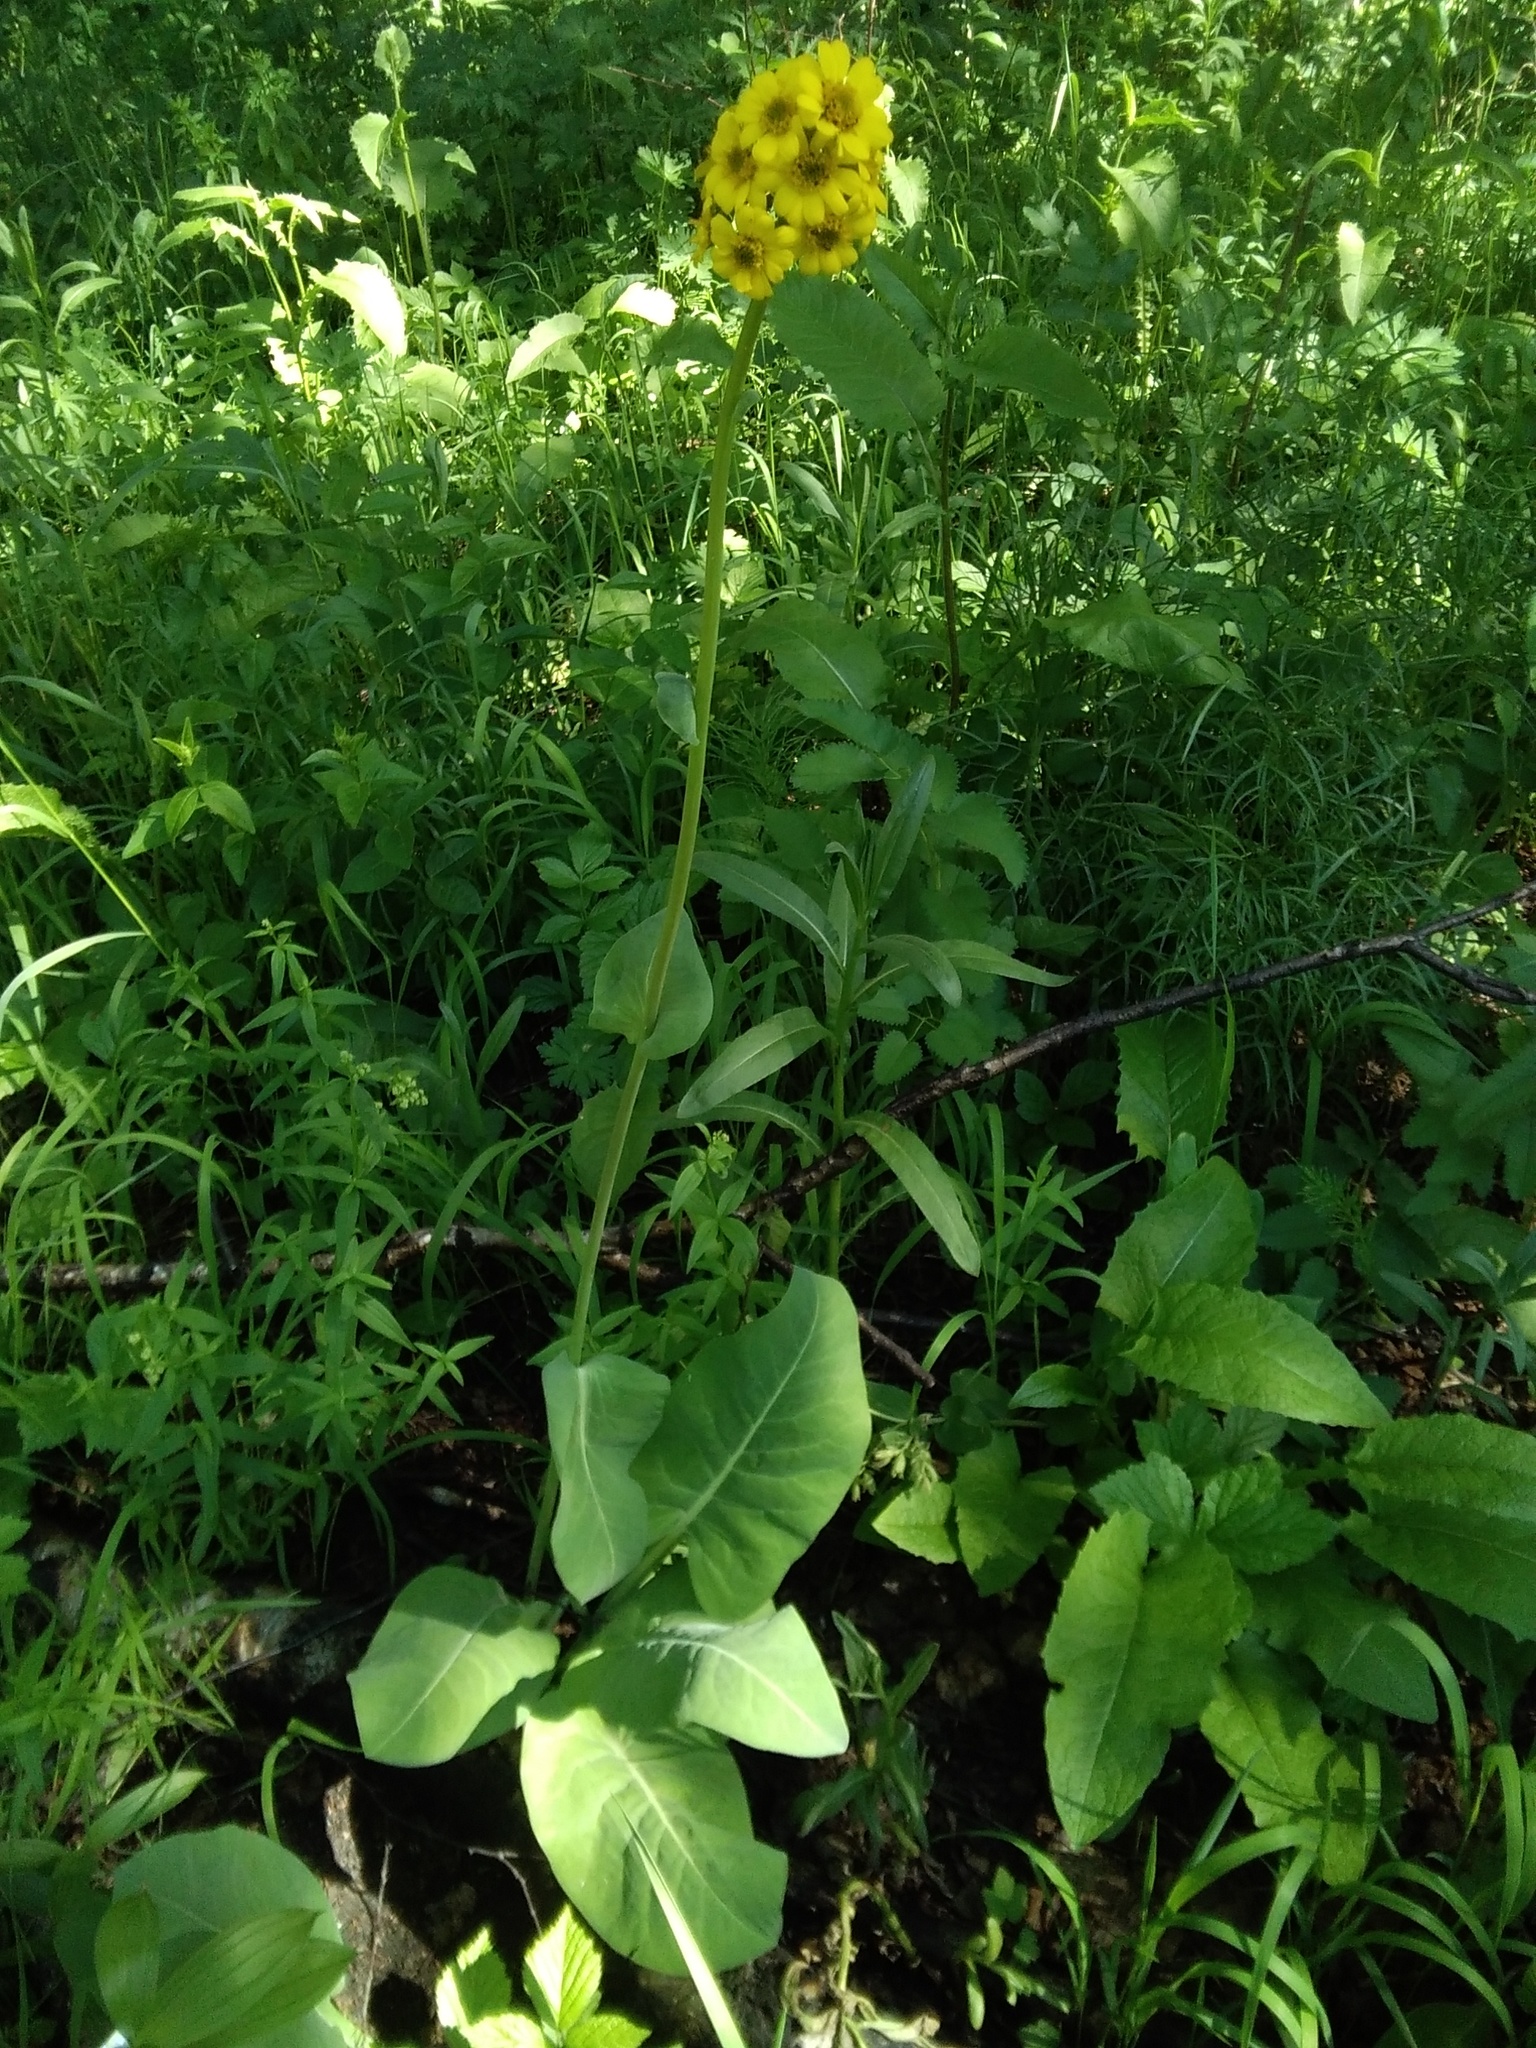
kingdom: Plantae
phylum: Tracheophyta
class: Magnoliopsida
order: Asterales
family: Asteraceae
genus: Ligularia
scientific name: Ligularia glauca
